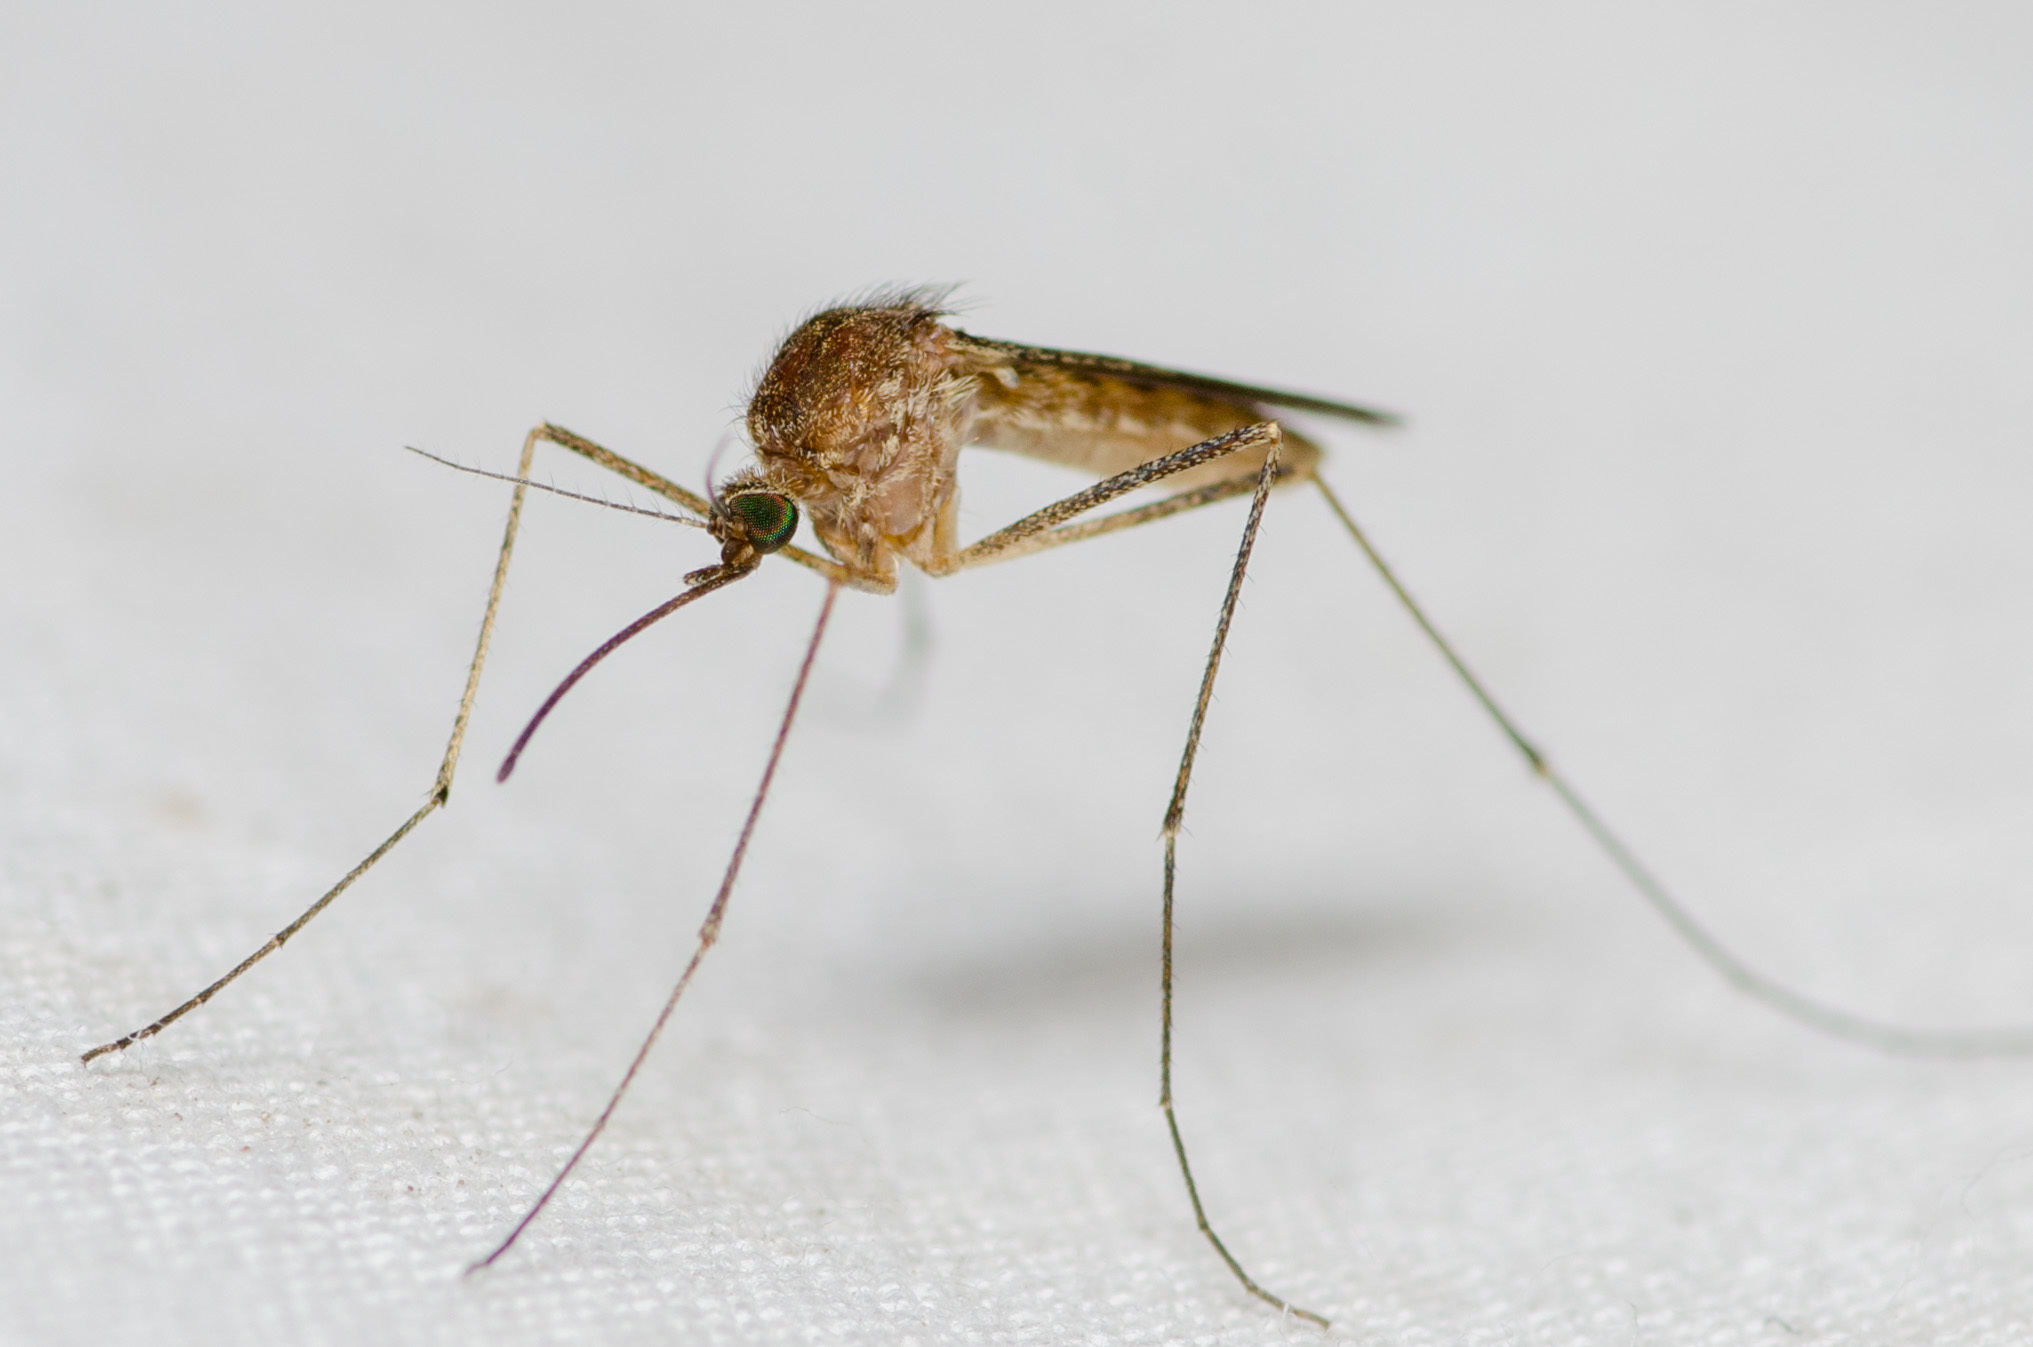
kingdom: Animalia
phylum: Arthropoda
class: Insecta
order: Diptera
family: Culicidae
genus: Culiseta
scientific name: Culiseta inornata
